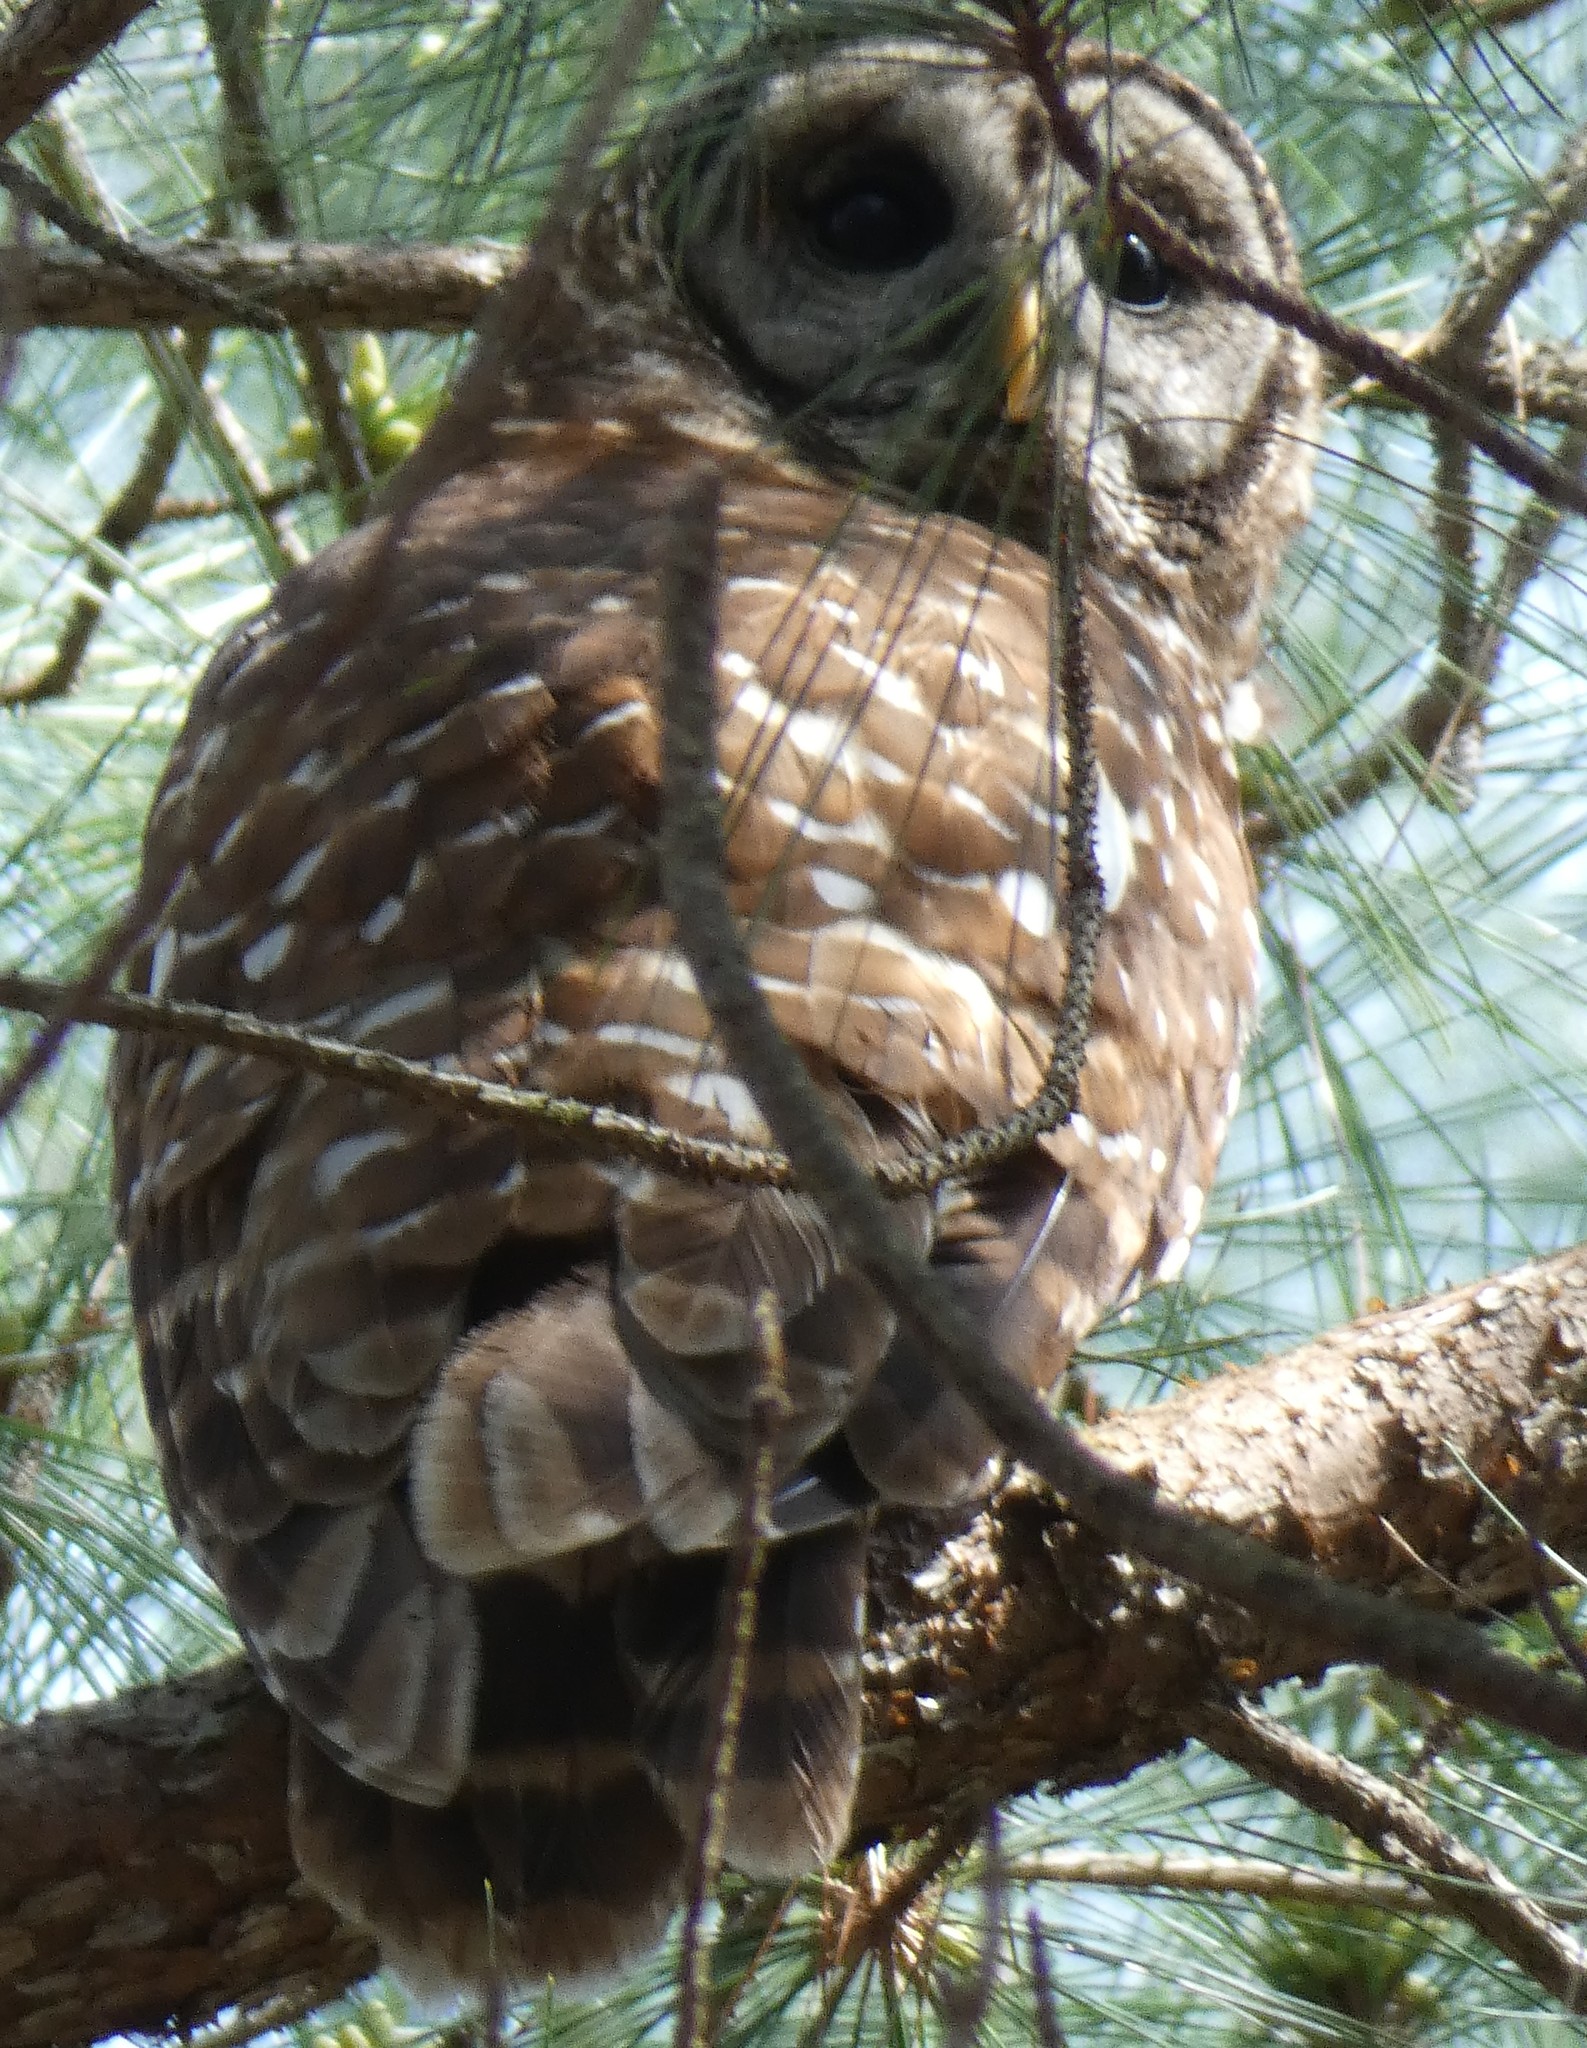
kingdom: Animalia
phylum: Chordata
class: Aves
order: Strigiformes
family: Strigidae
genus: Strix
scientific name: Strix varia
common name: Barred owl
